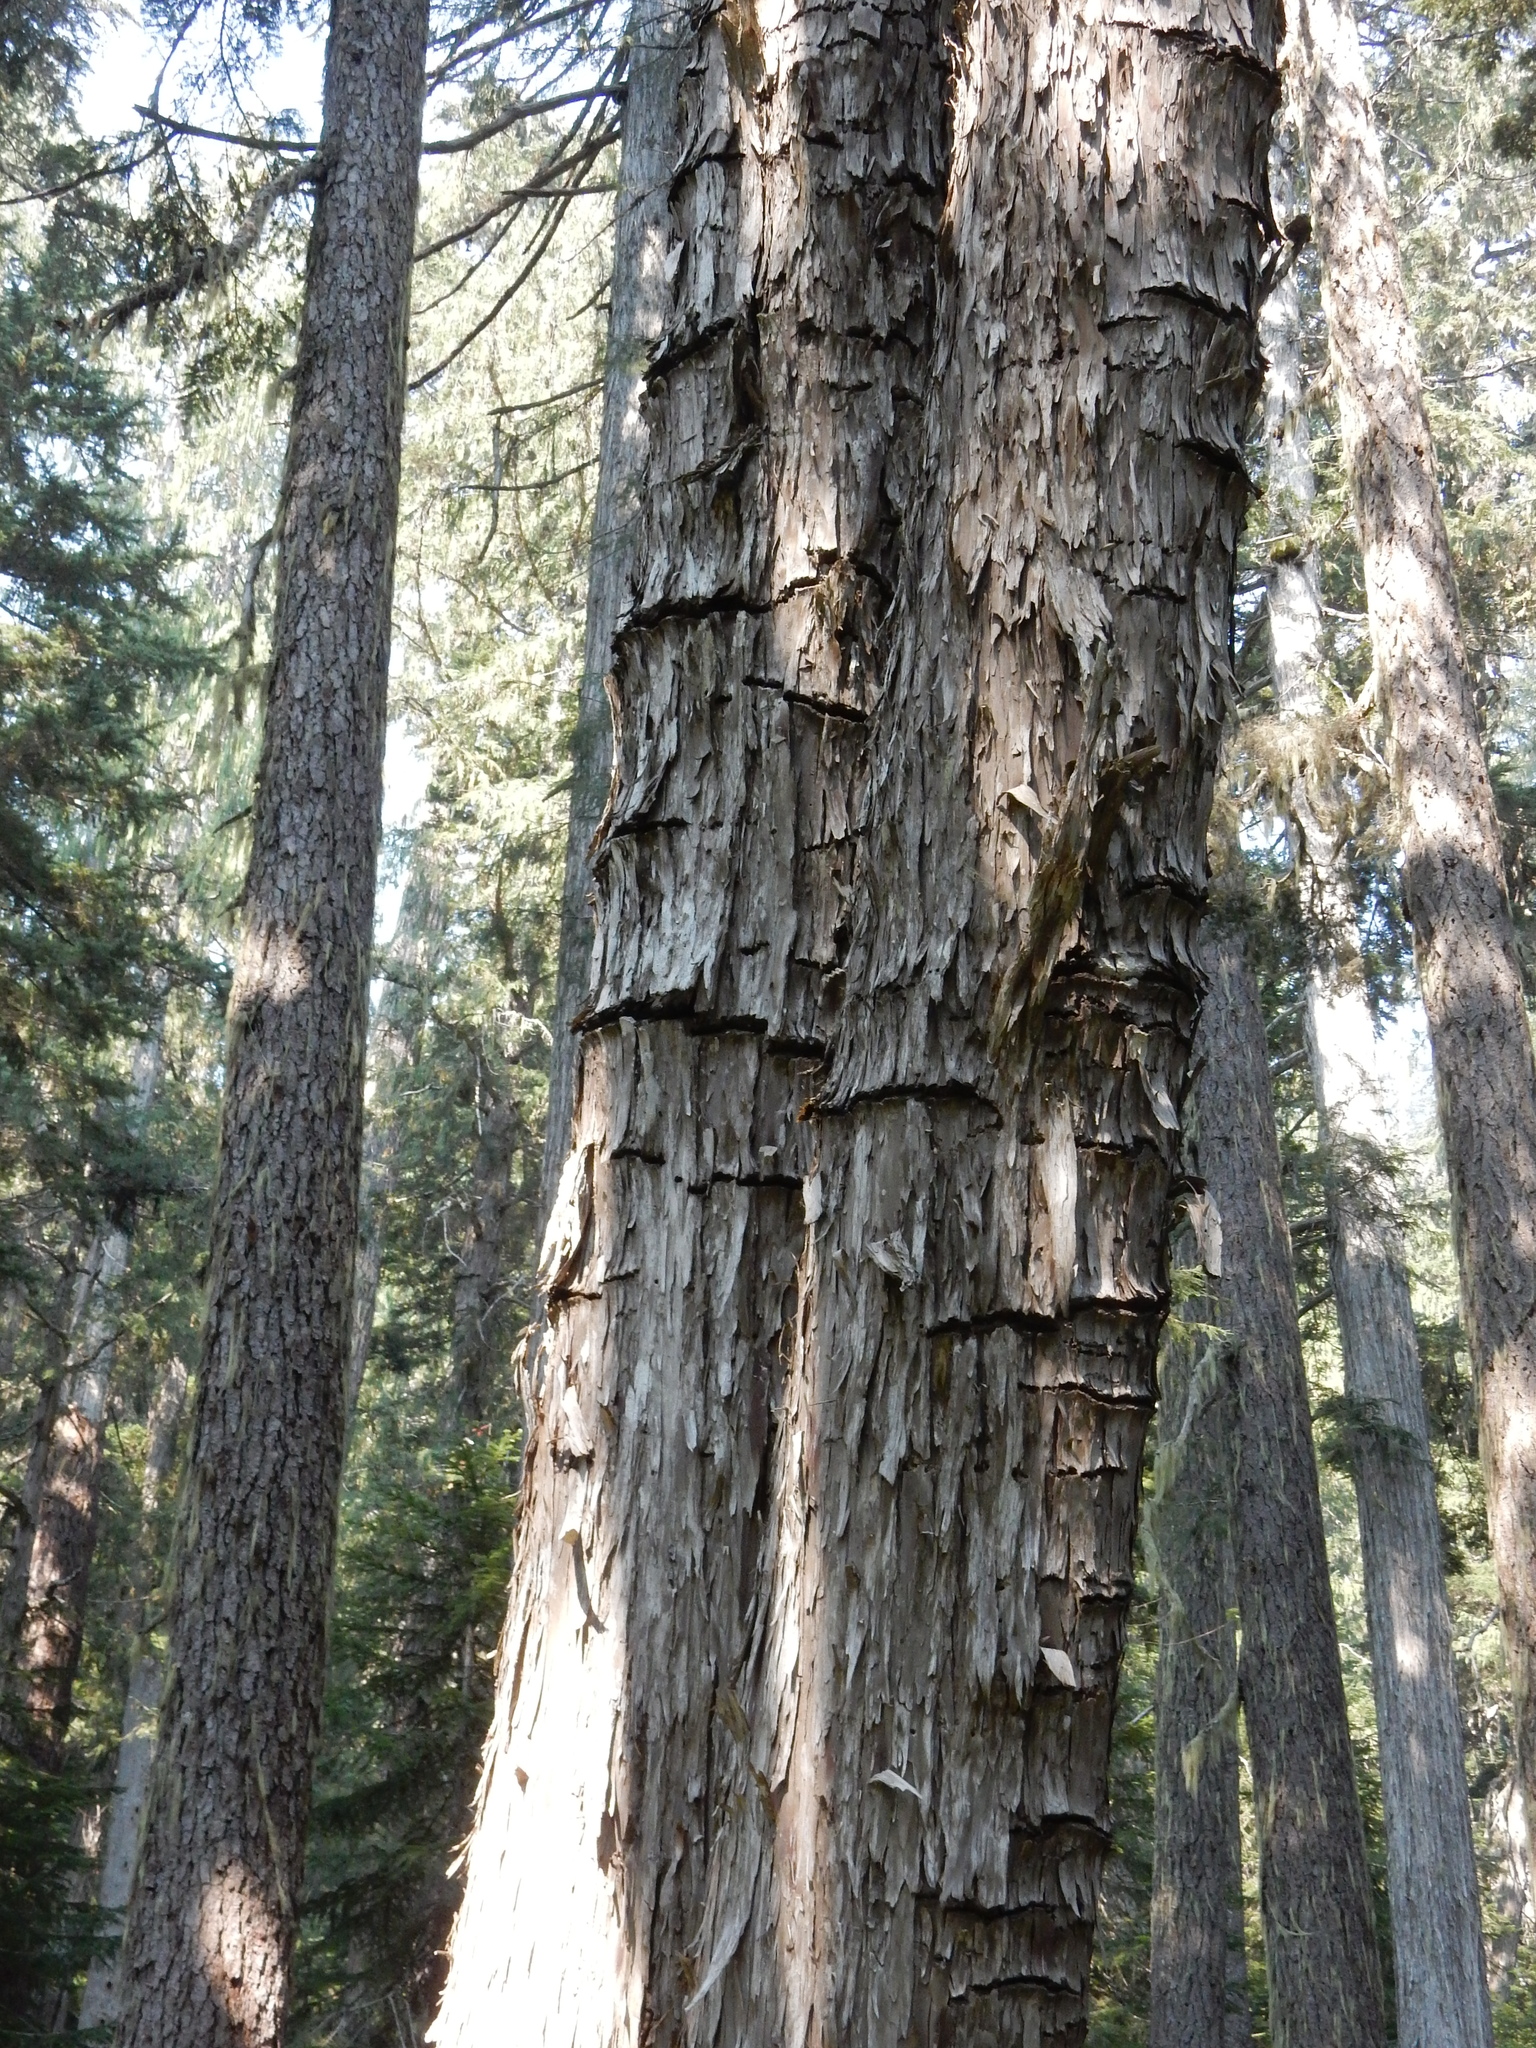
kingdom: Plantae
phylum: Tracheophyta
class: Pinopsida
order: Pinales
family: Cupressaceae
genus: Xanthocyparis
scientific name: Xanthocyparis nootkatensis
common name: Nootka cypress
